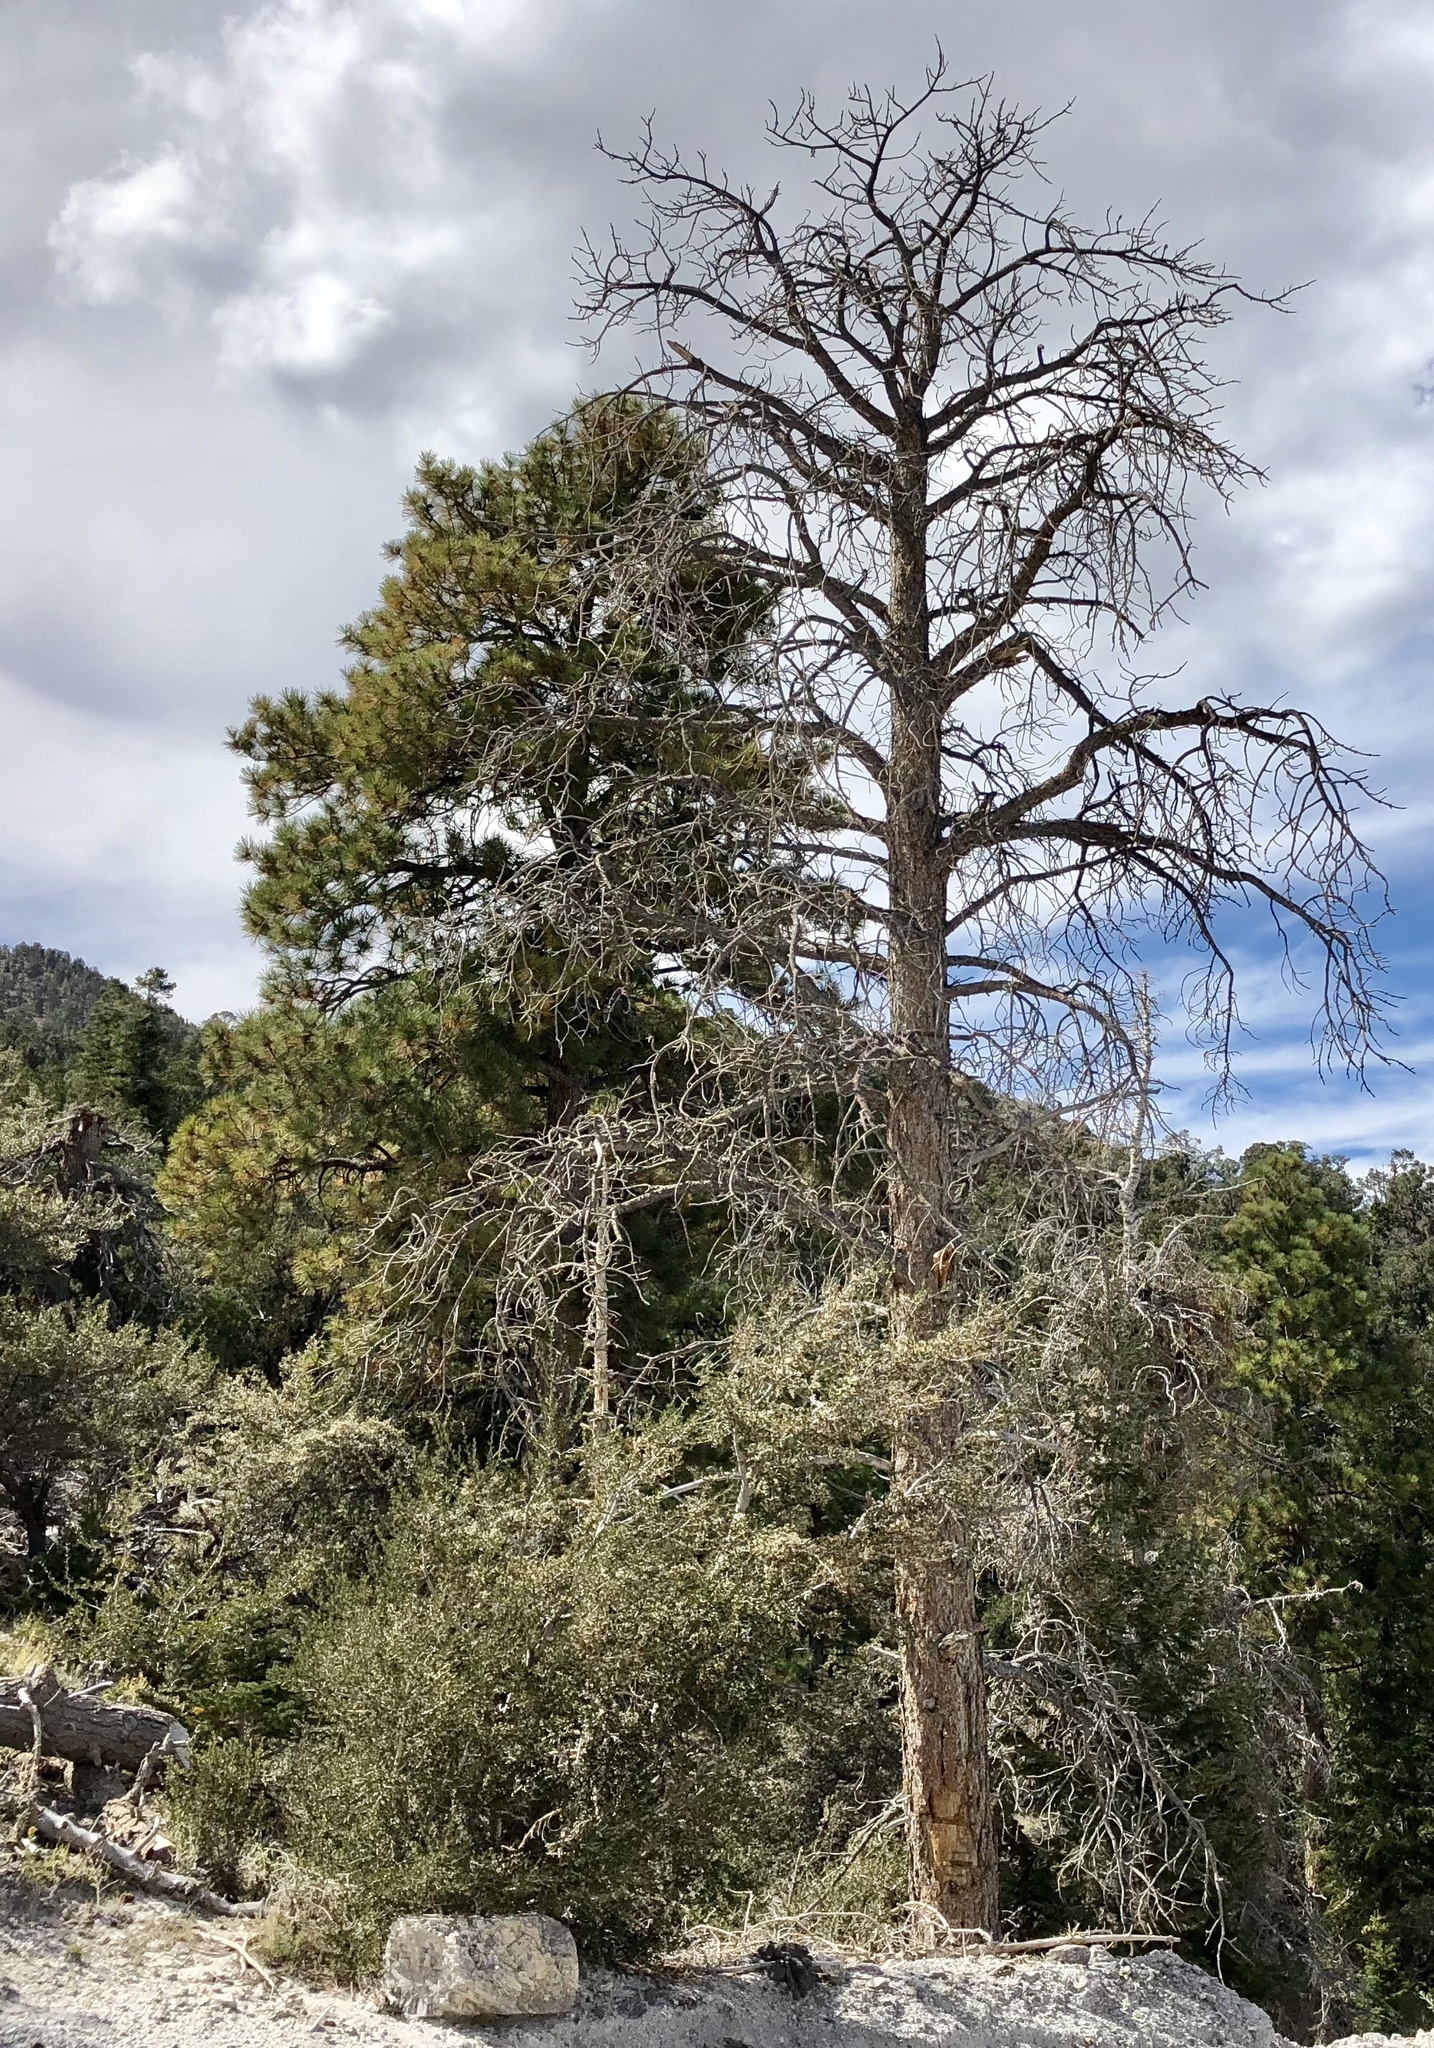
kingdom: Plantae
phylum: Tracheophyta
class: Pinopsida
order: Pinales
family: Pinaceae
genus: Pinus
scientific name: Pinus ponderosa
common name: Western yellow-pine
